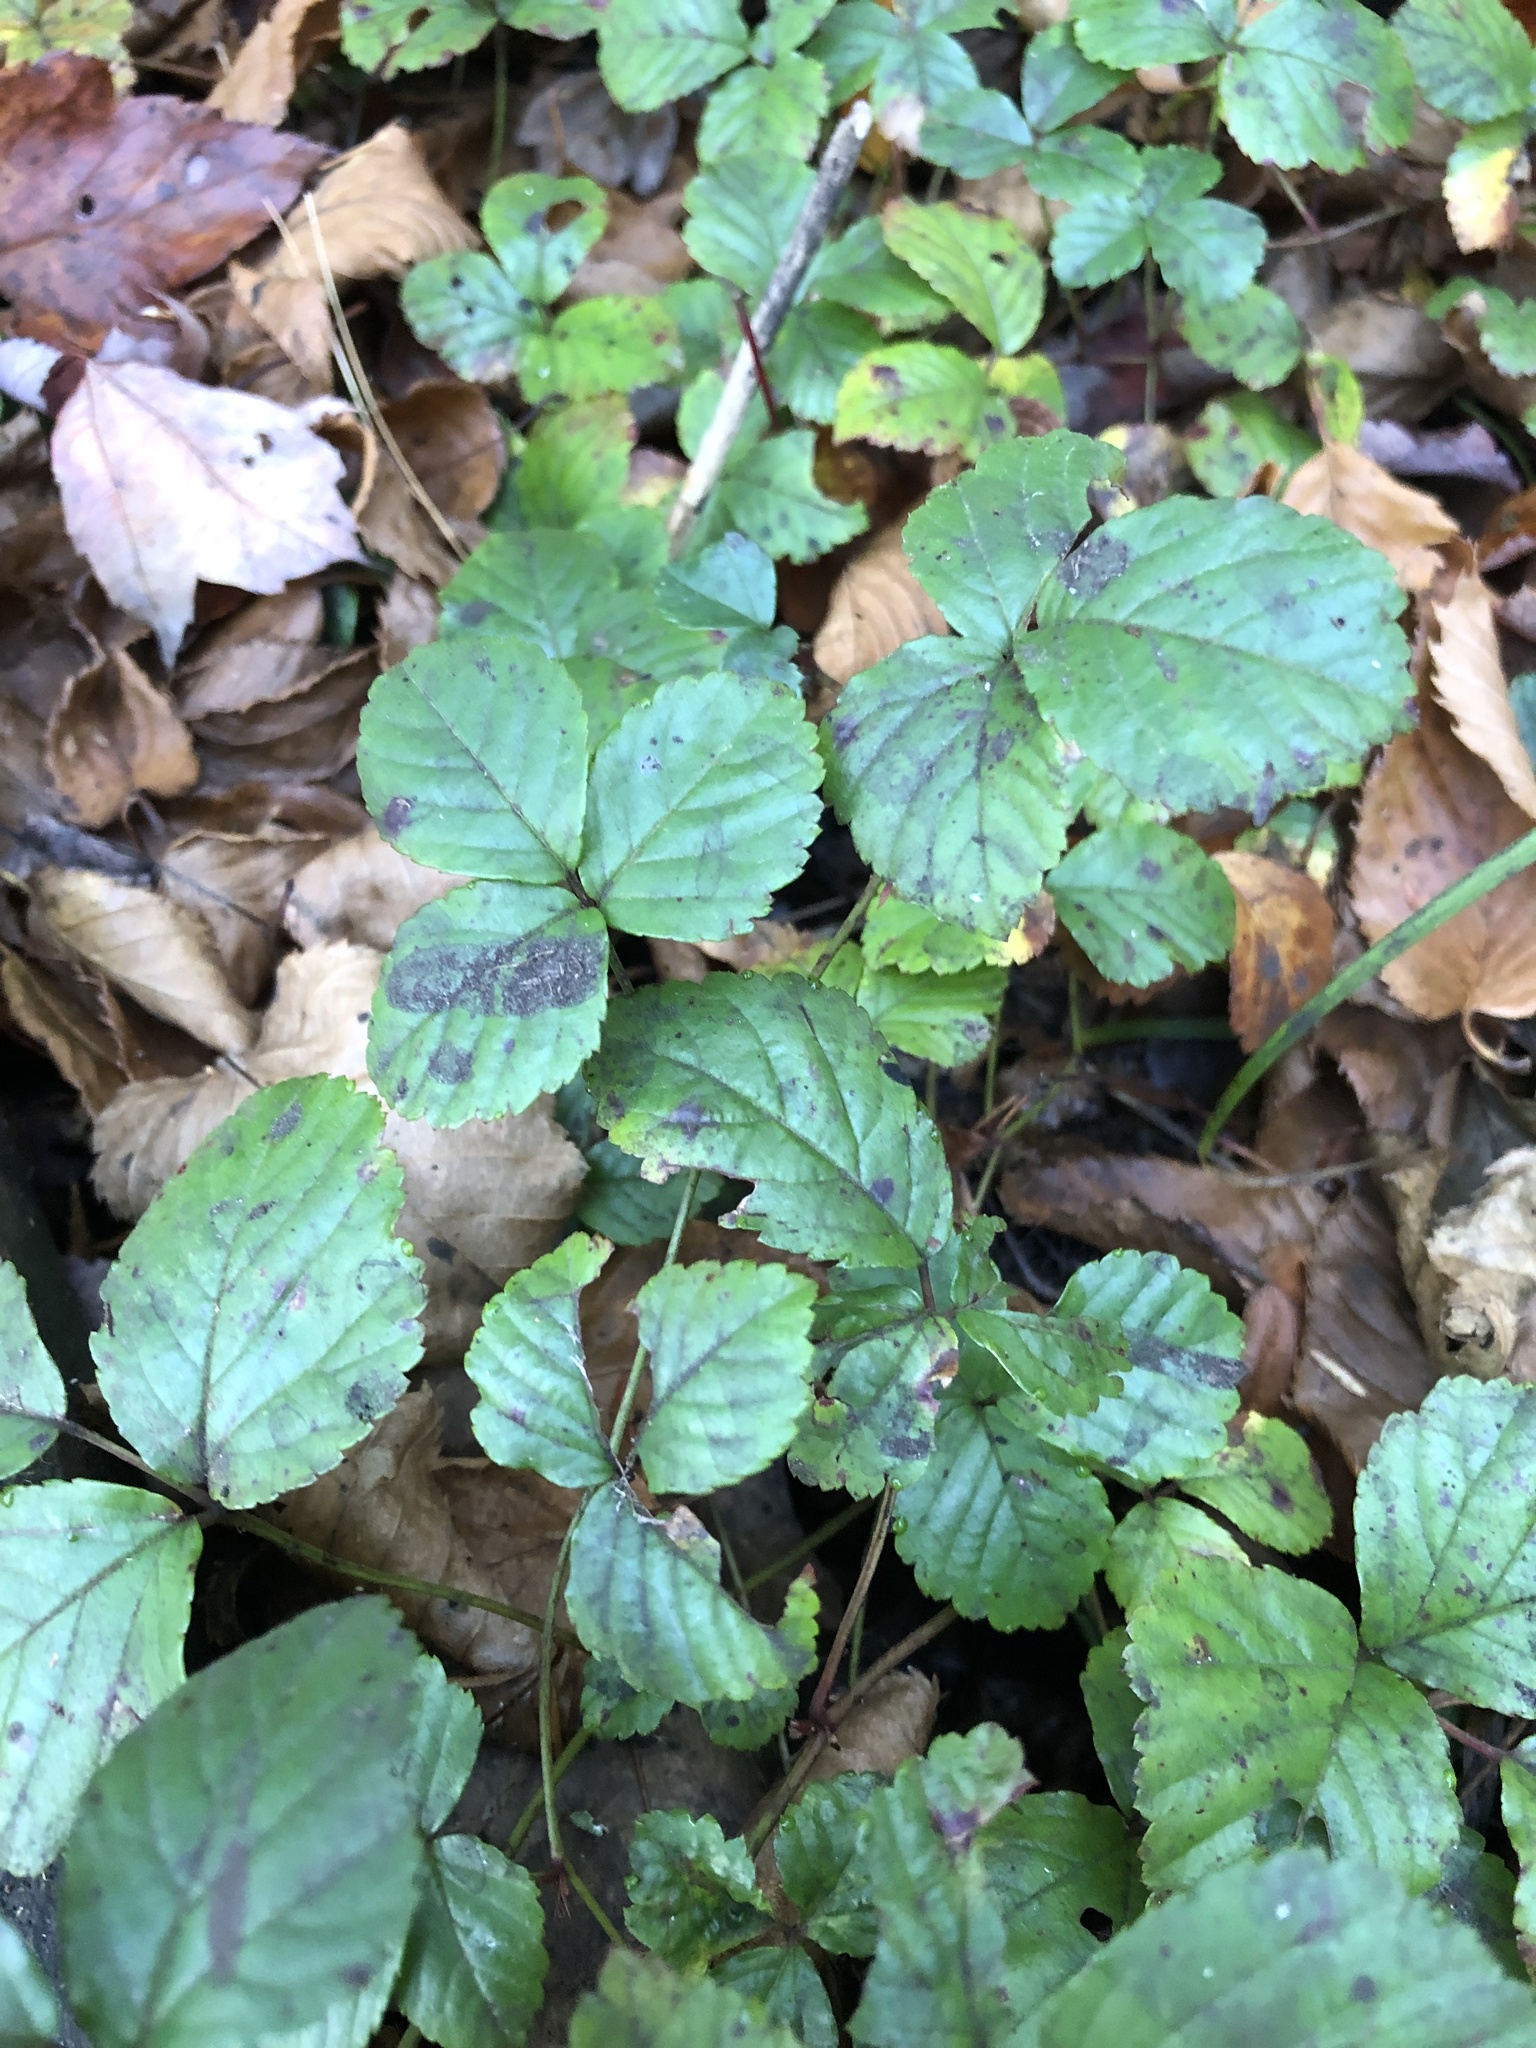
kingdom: Plantae
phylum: Tracheophyta
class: Magnoliopsida
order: Rosales
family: Rosaceae
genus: Rubus
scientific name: Rubus flagellaris
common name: American dewberry
